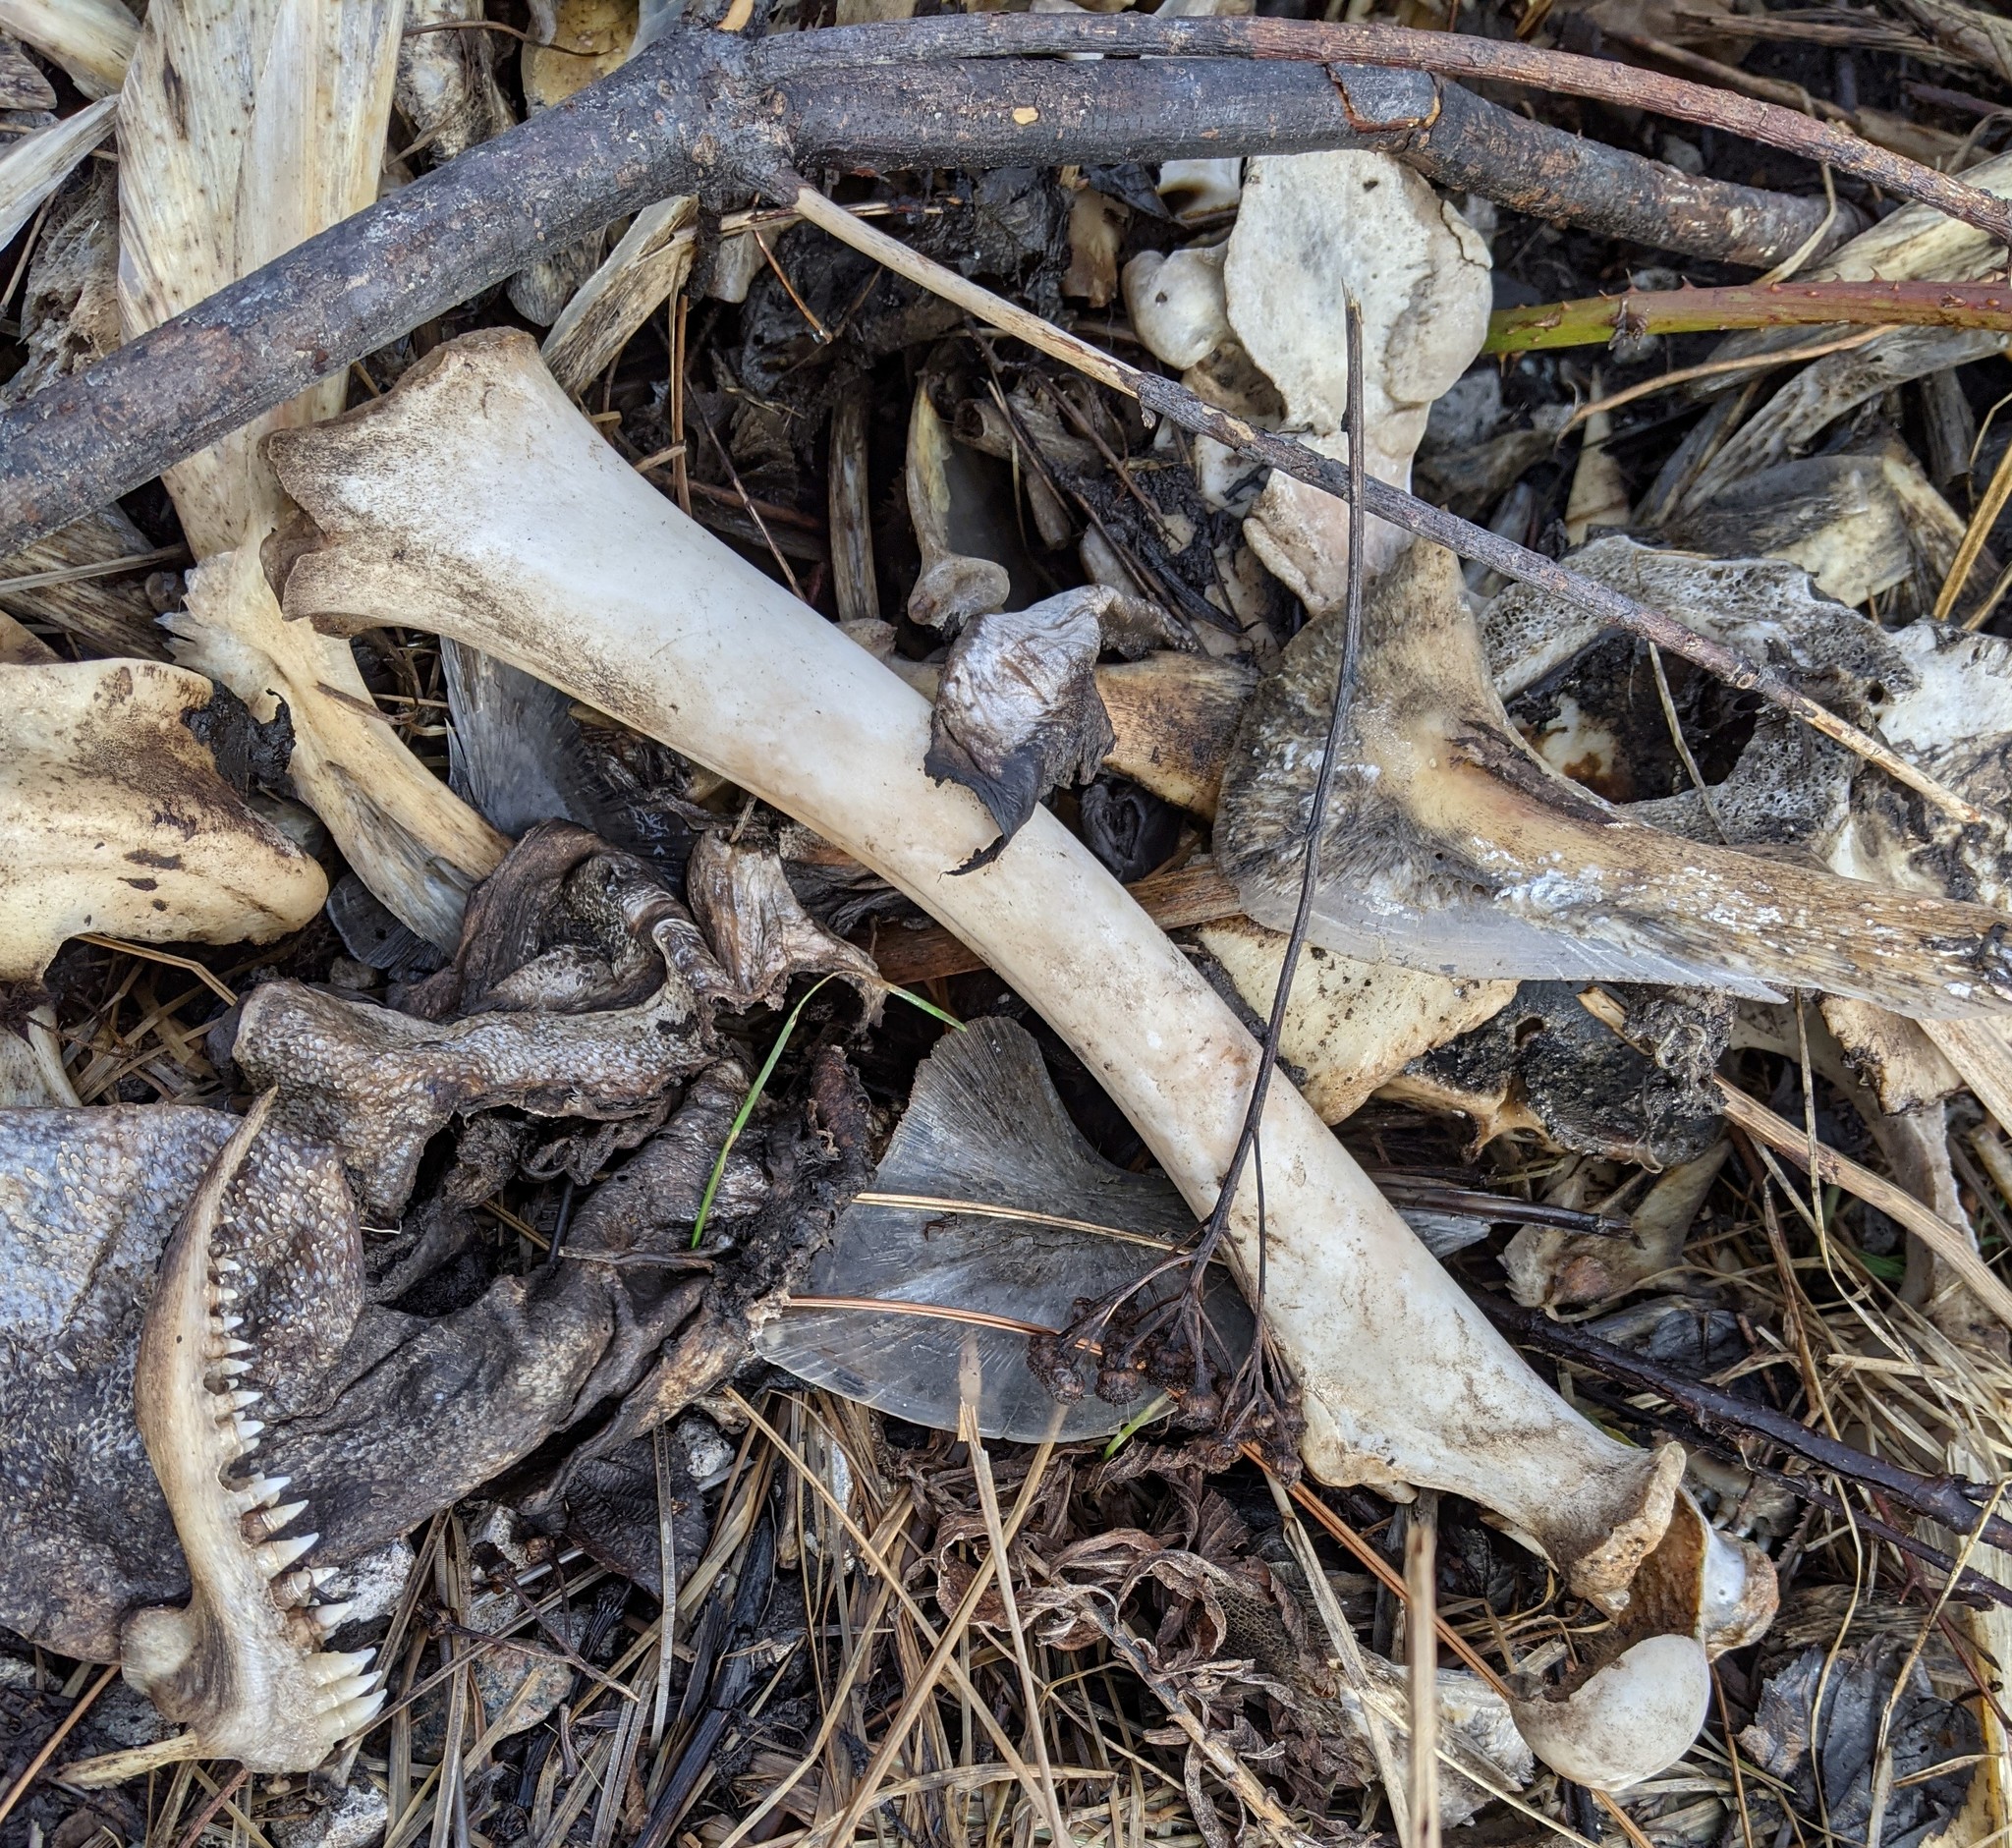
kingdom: Animalia
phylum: Chordata
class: Mammalia
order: Artiodactyla
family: Cervidae
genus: Odocoileus
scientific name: Odocoileus virginianus
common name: White-tailed deer
